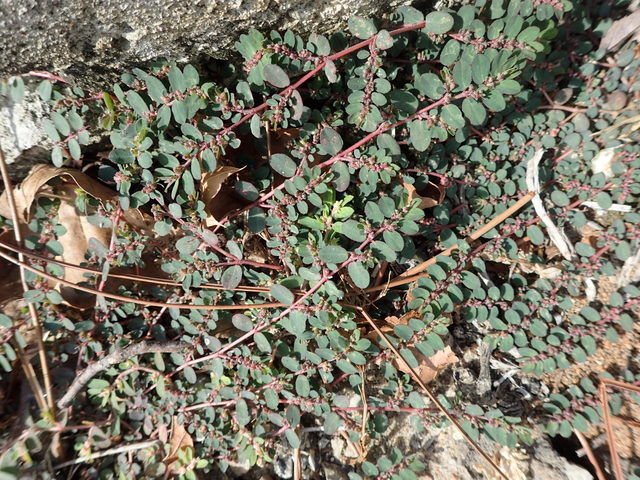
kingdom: Plantae
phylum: Tracheophyta
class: Magnoliopsida
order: Malpighiales
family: Euphorbiaceae
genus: Euphorbia
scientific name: Euphorbia prostrata
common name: Prostrate sandmat
